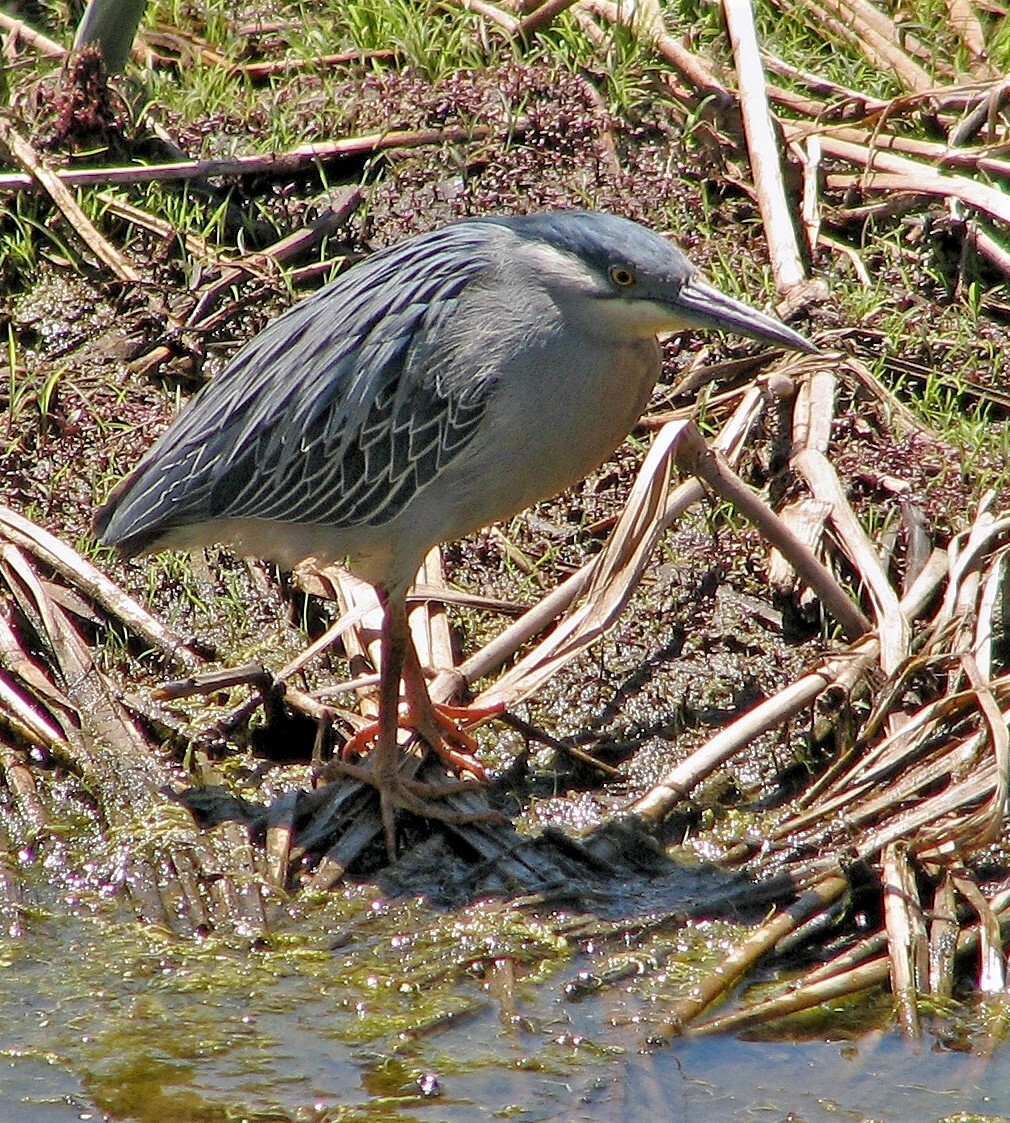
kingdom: Animalia
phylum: Chordata
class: Aves
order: Pelecaniformes
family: Ardeidae
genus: Butorides
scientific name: Butorides striata
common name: Striated heron
